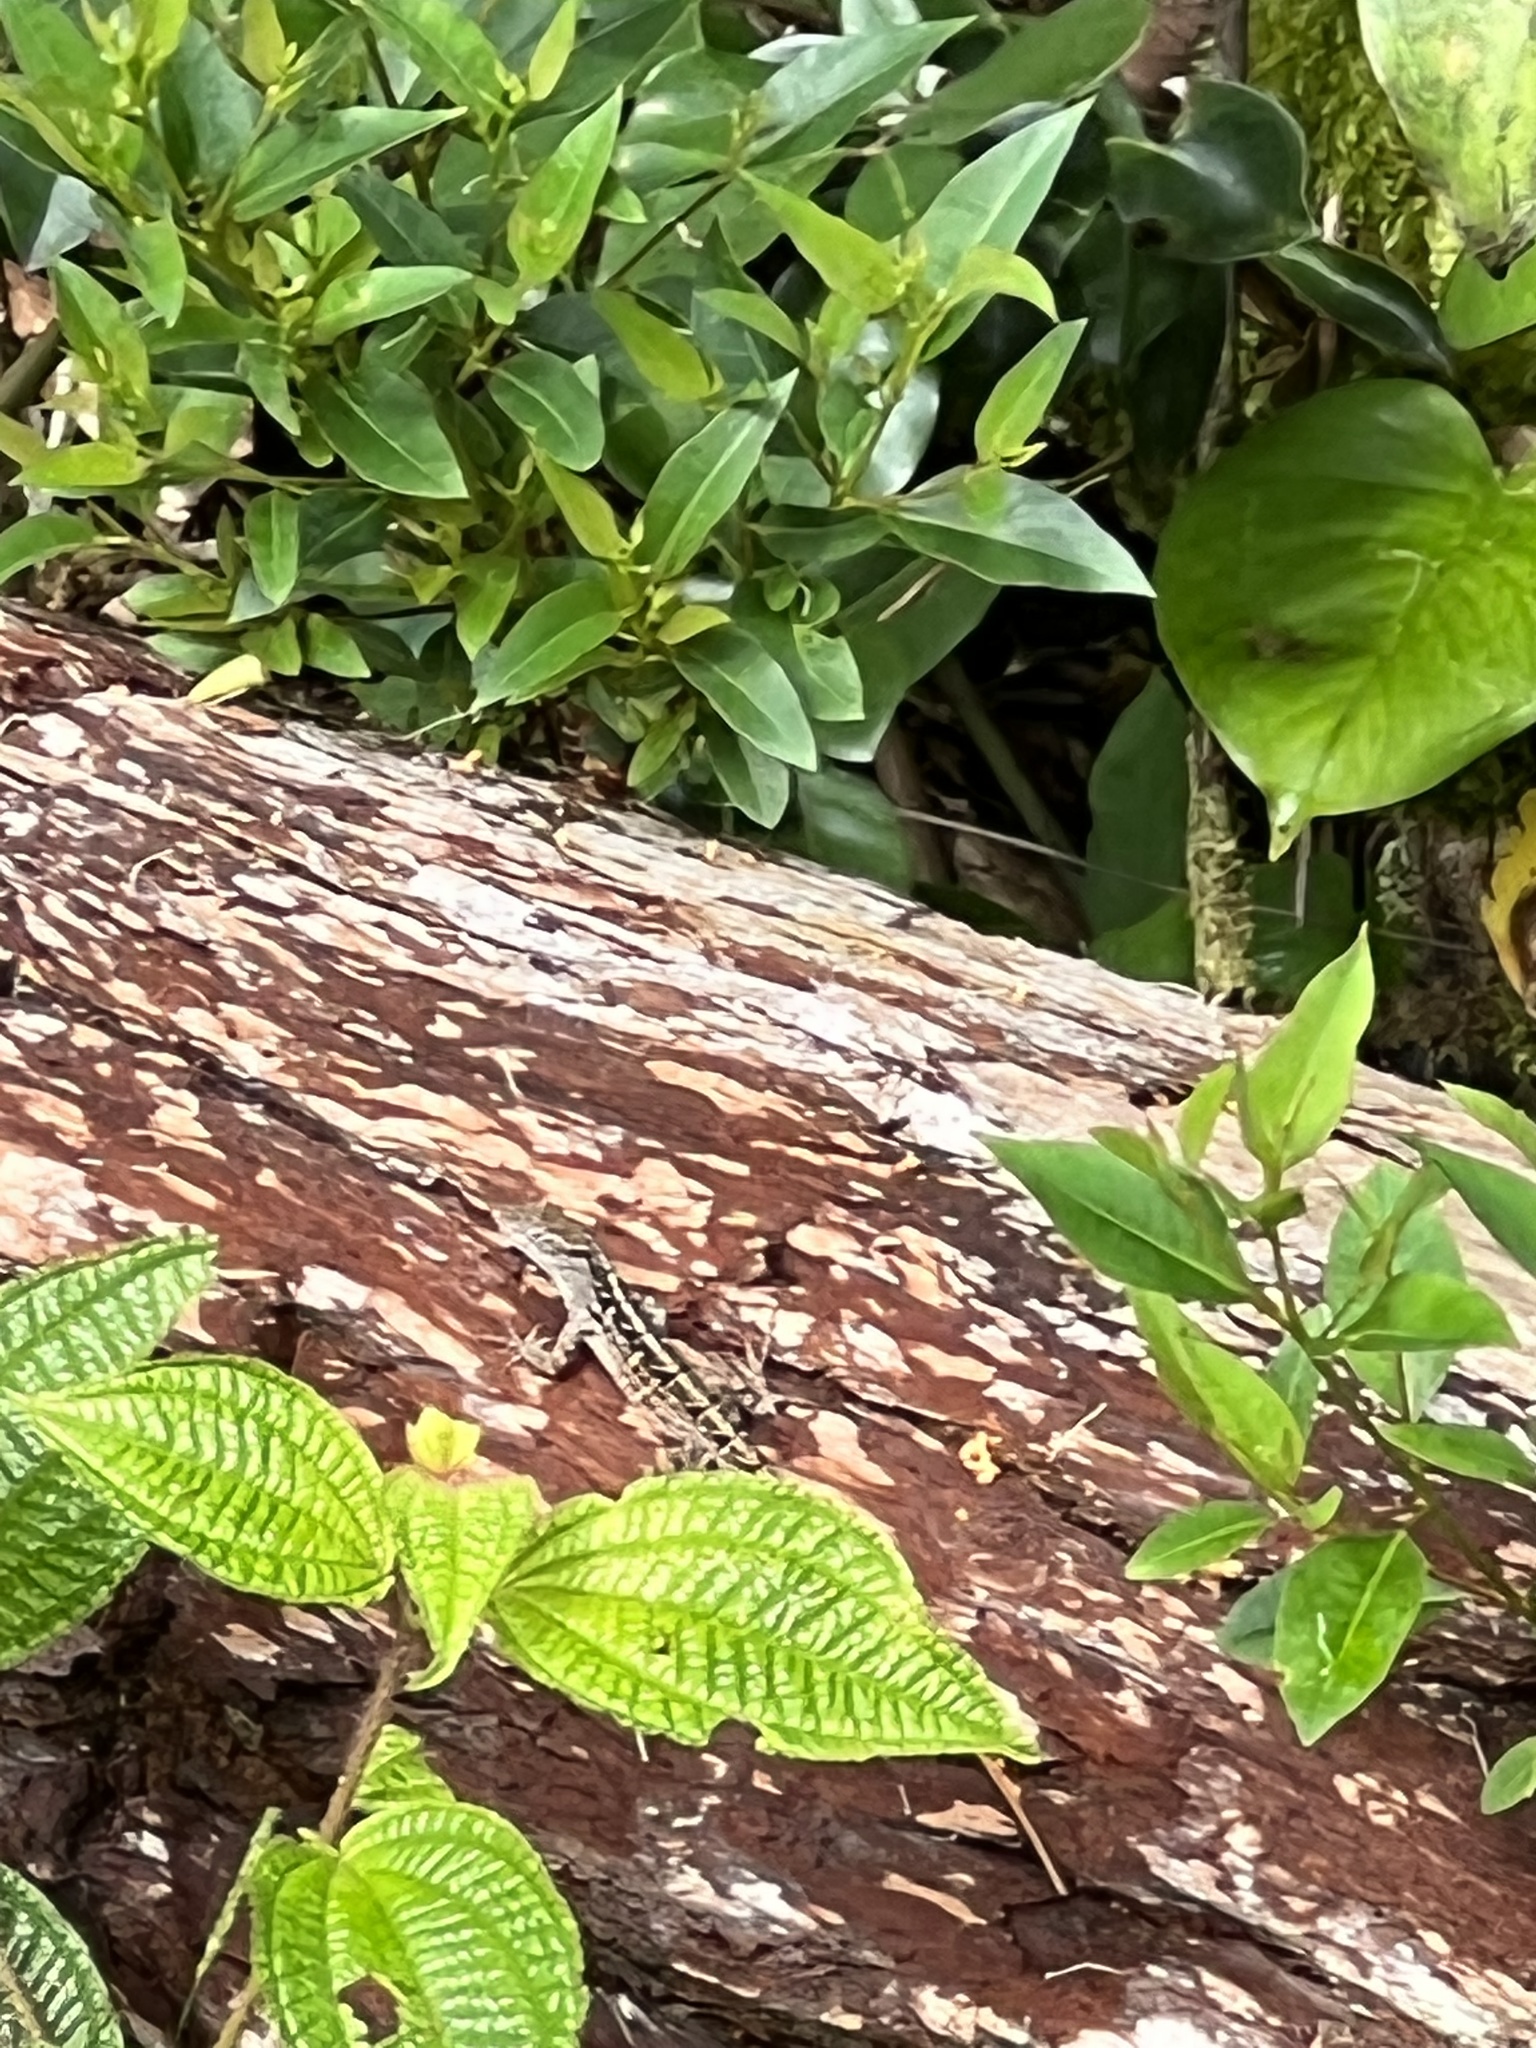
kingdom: Animalia
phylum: Chordata
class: Squamata
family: Dactyloidae
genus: Anolis
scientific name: Anolis sagrei
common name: Brown anole
